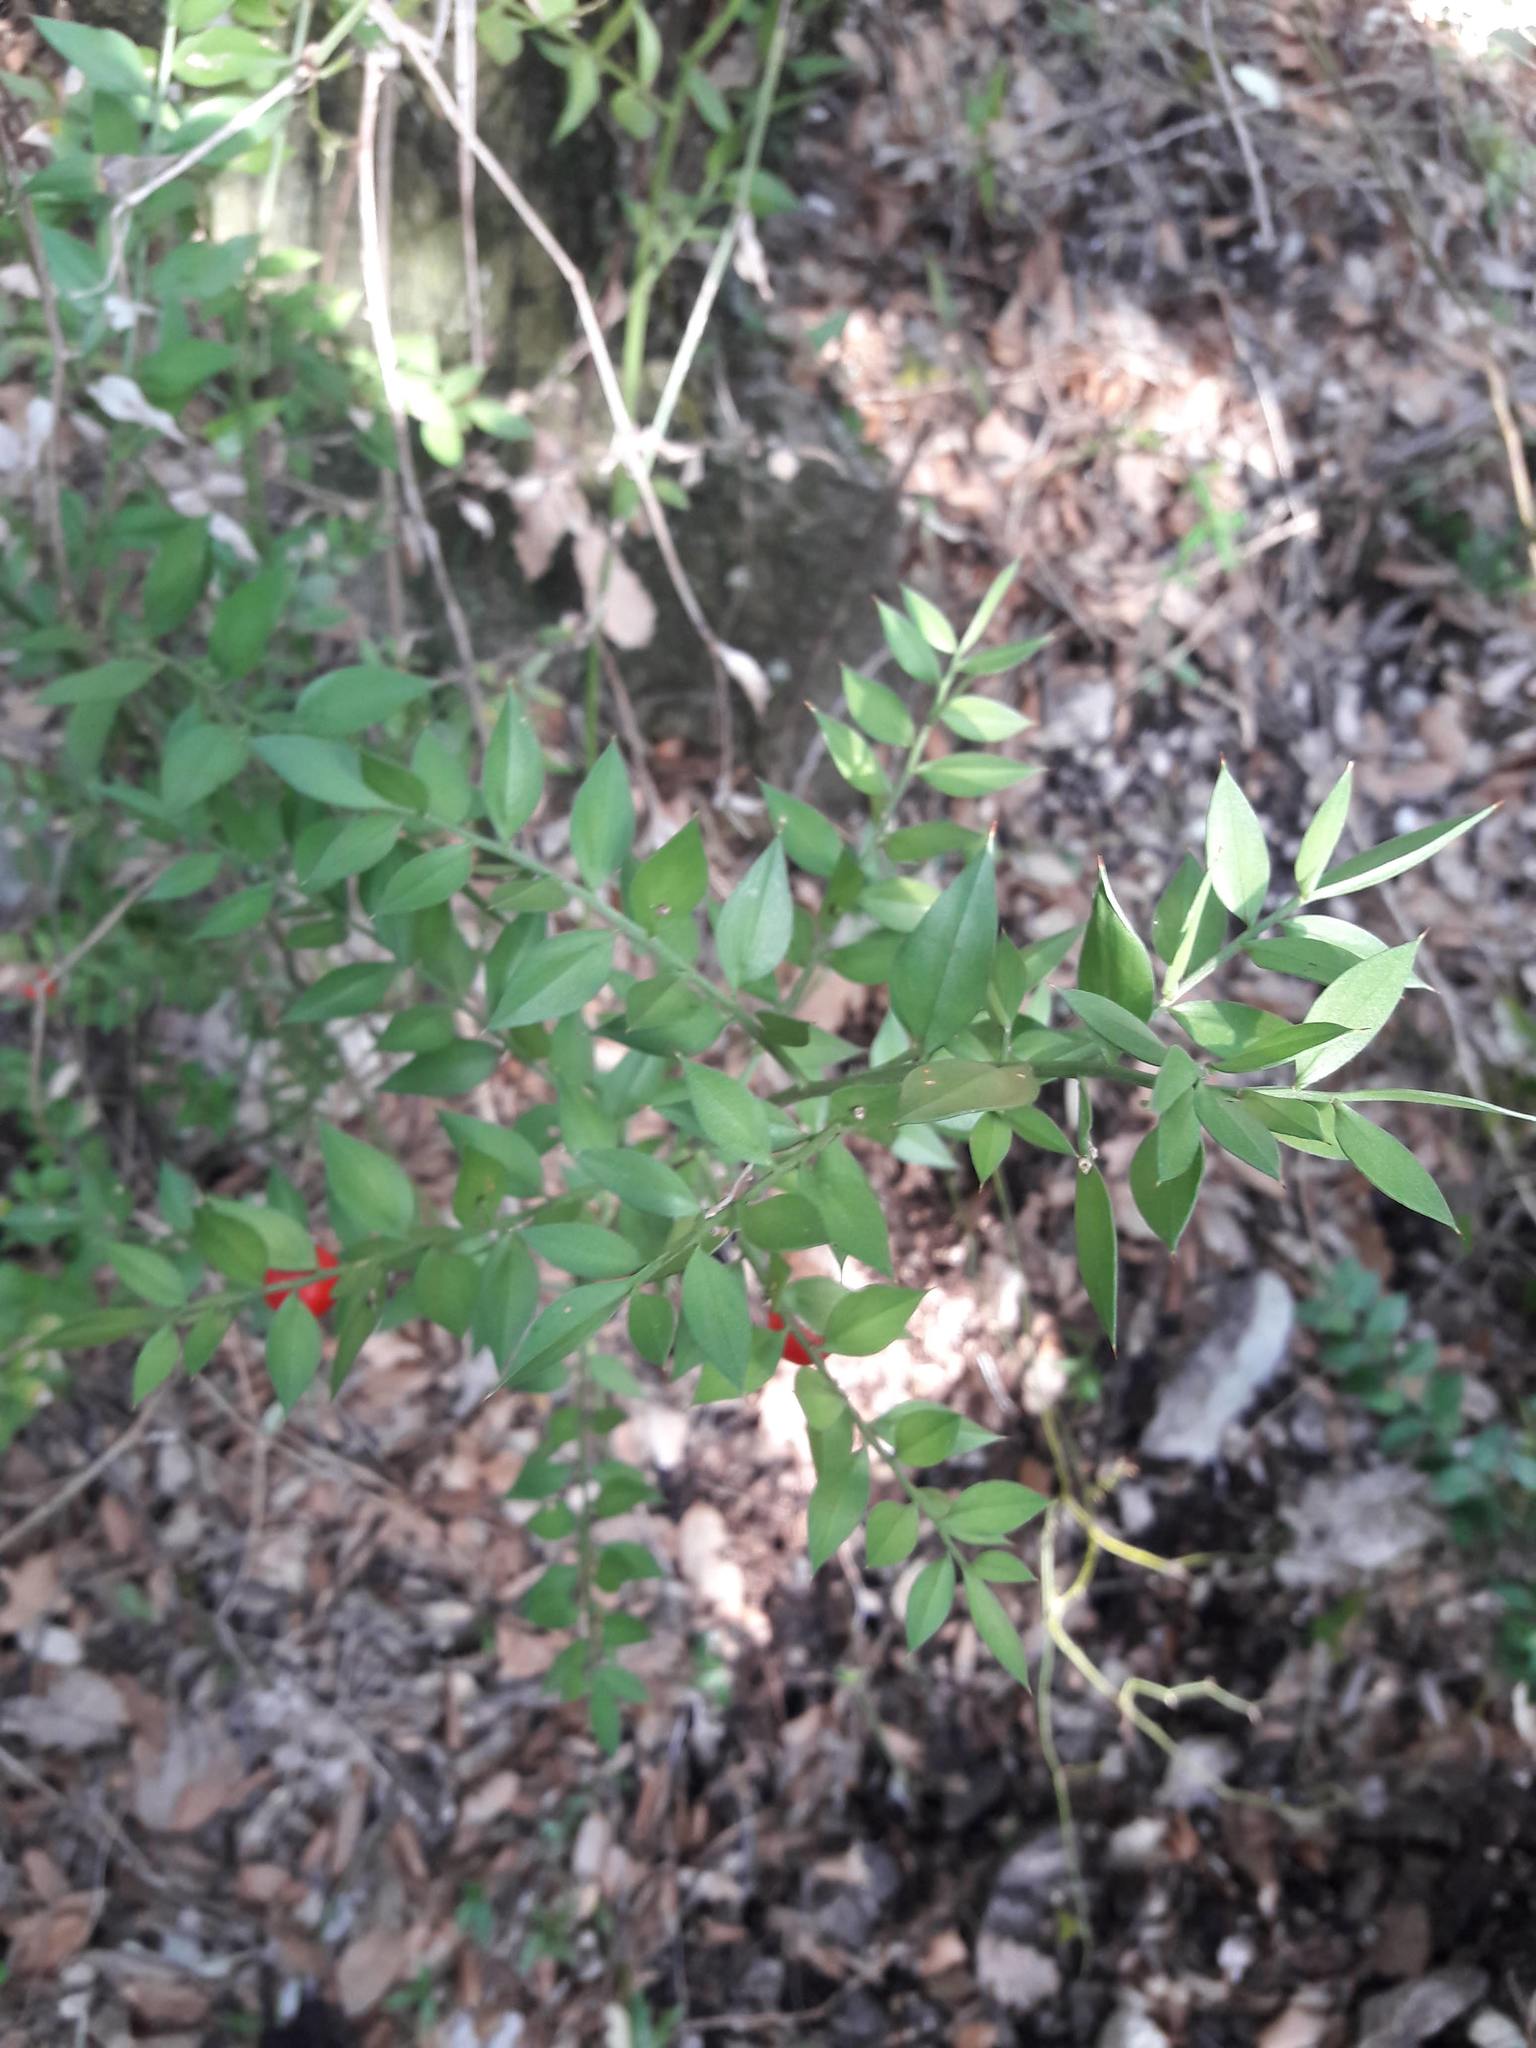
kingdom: Plantae
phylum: Tracheophyta
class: Liliopsida
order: Asparagales
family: Asparagaceae
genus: Ruscus
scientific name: Ruscus aculeatus
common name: Butcher's-broom
